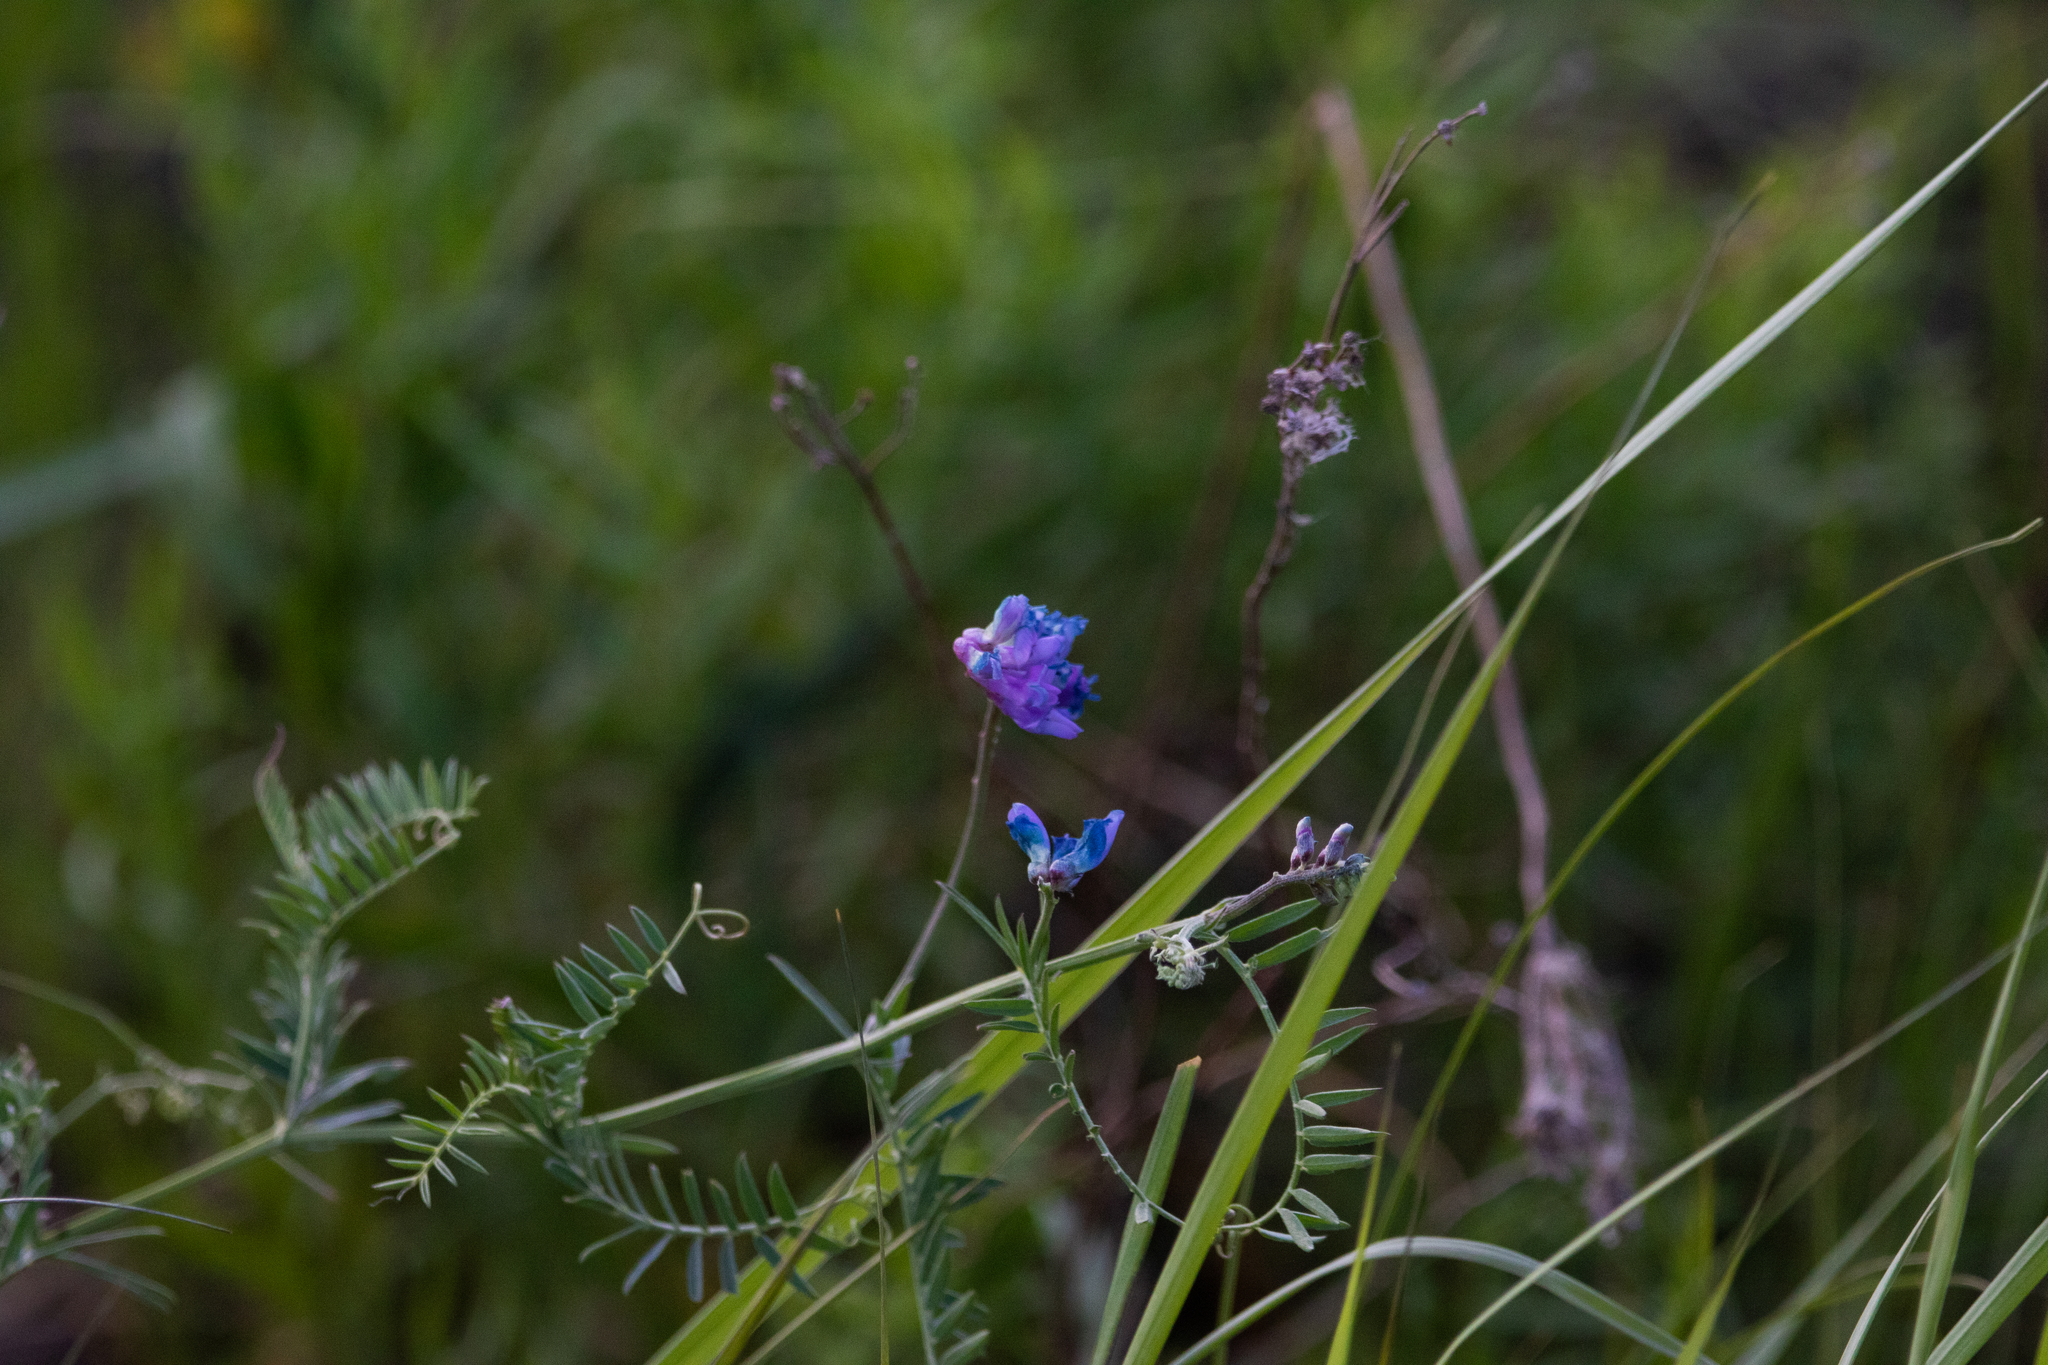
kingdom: Plantae
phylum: Tracheophyta
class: Magnoliopsida
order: Fabales
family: Fabaceae
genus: Vicia
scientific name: Vicia cracca
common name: Bird vetch
